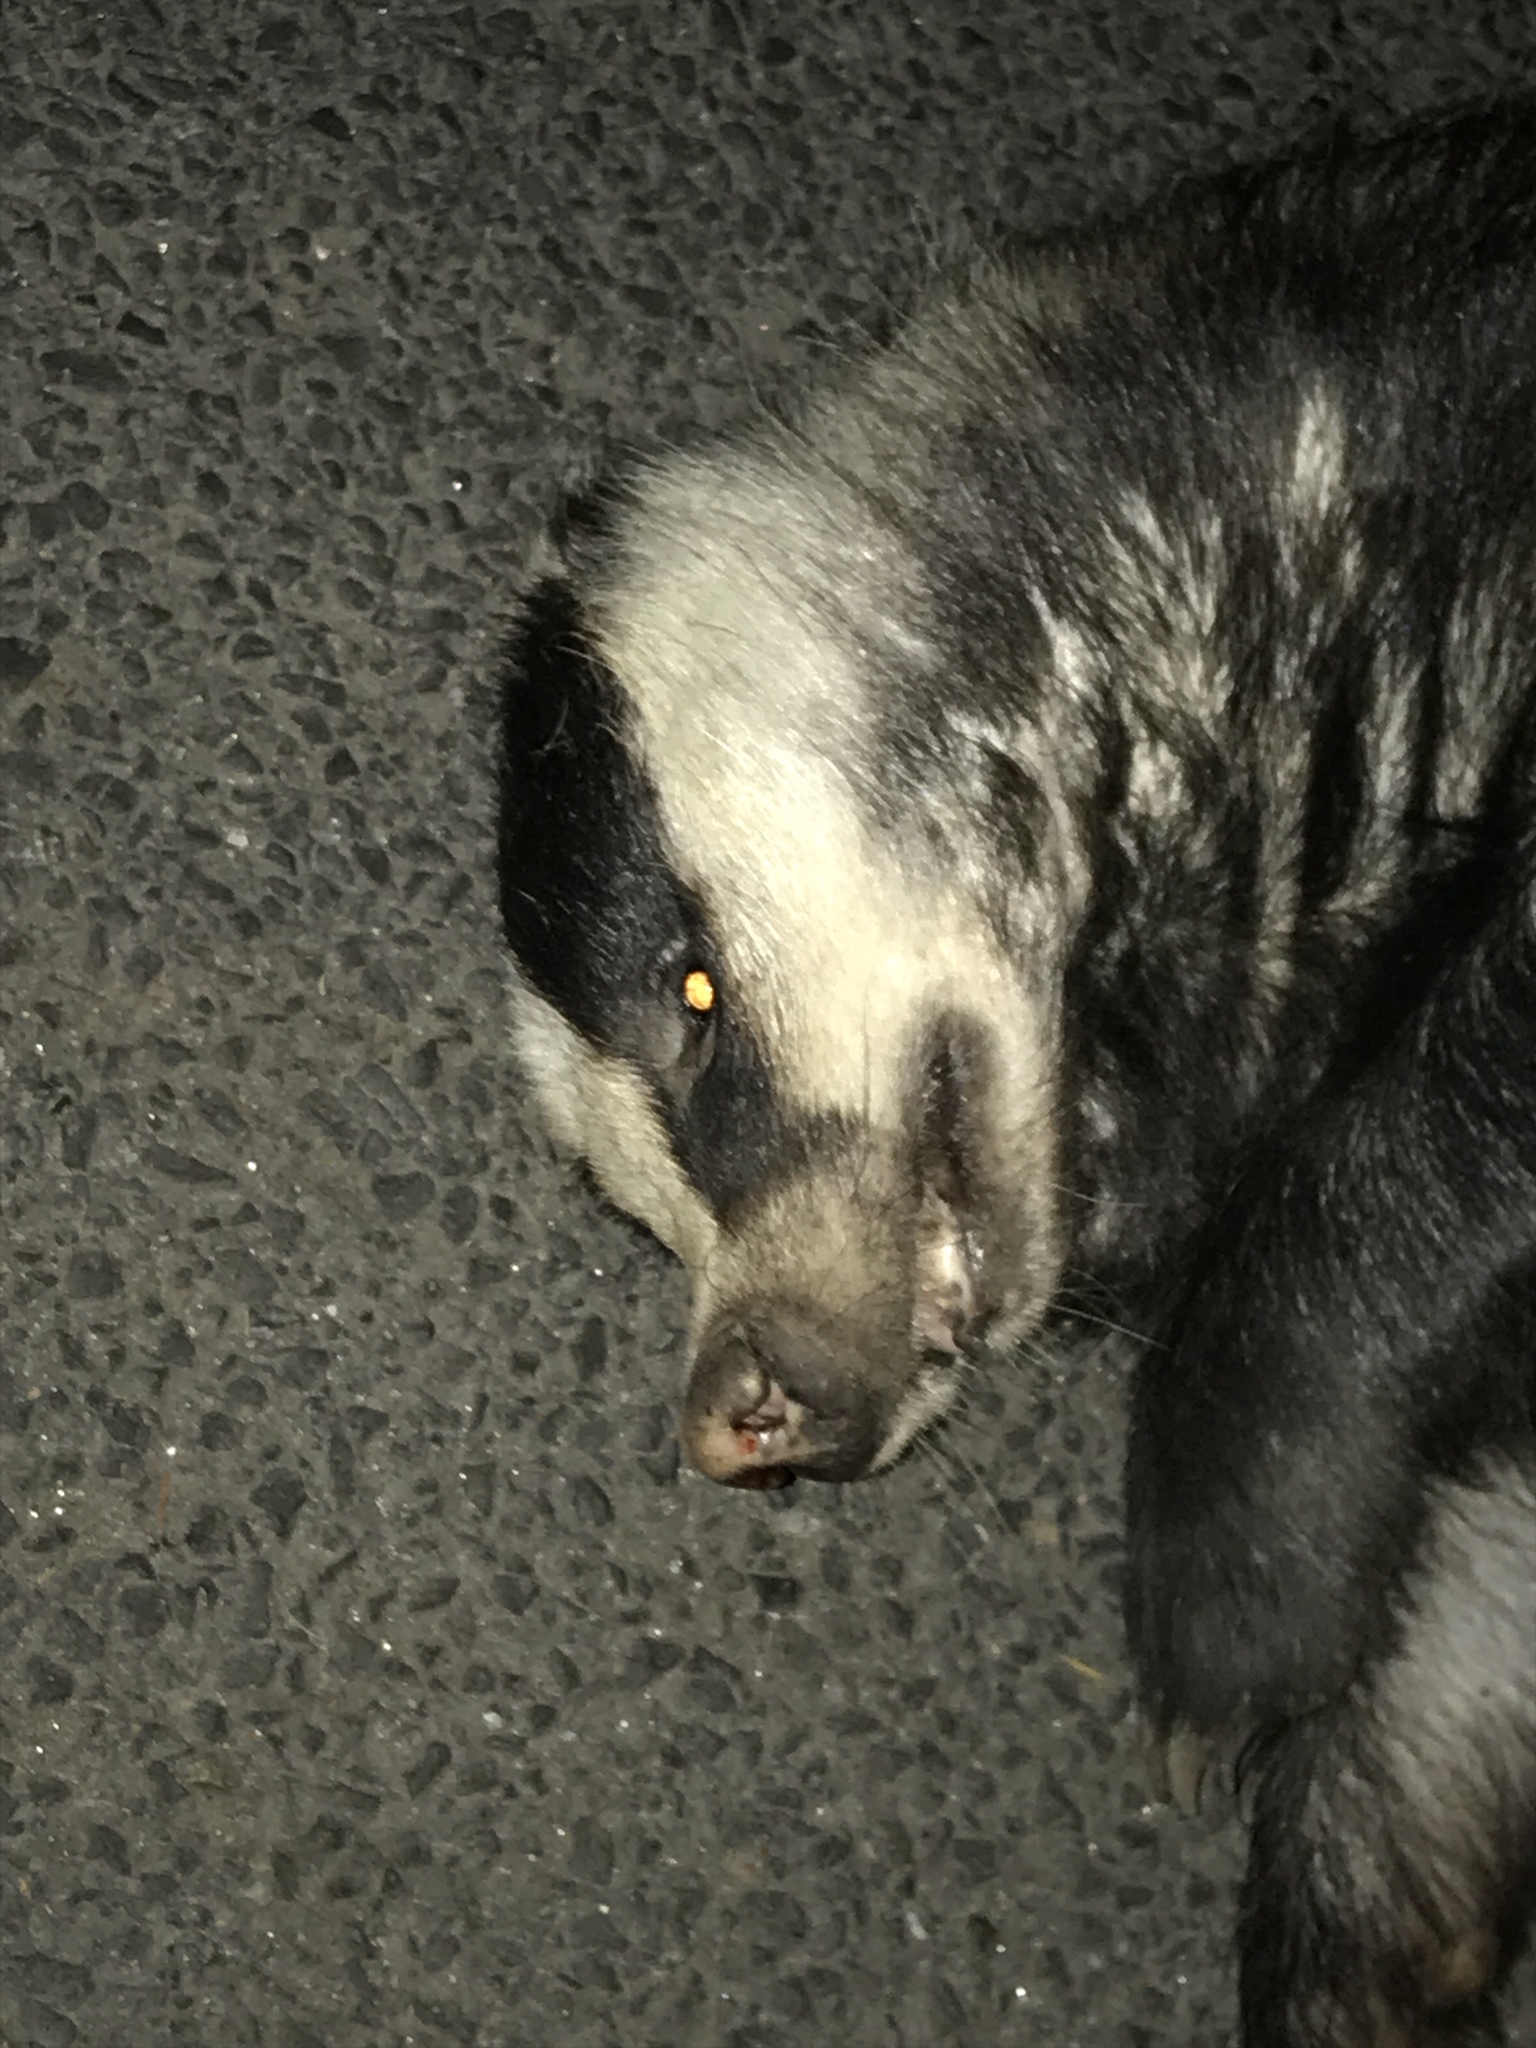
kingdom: Animalia
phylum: Chordata
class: Mammalia
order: Carnivora
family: Mustelidae
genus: Meles
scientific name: Meles meles
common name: Eurasian badger
